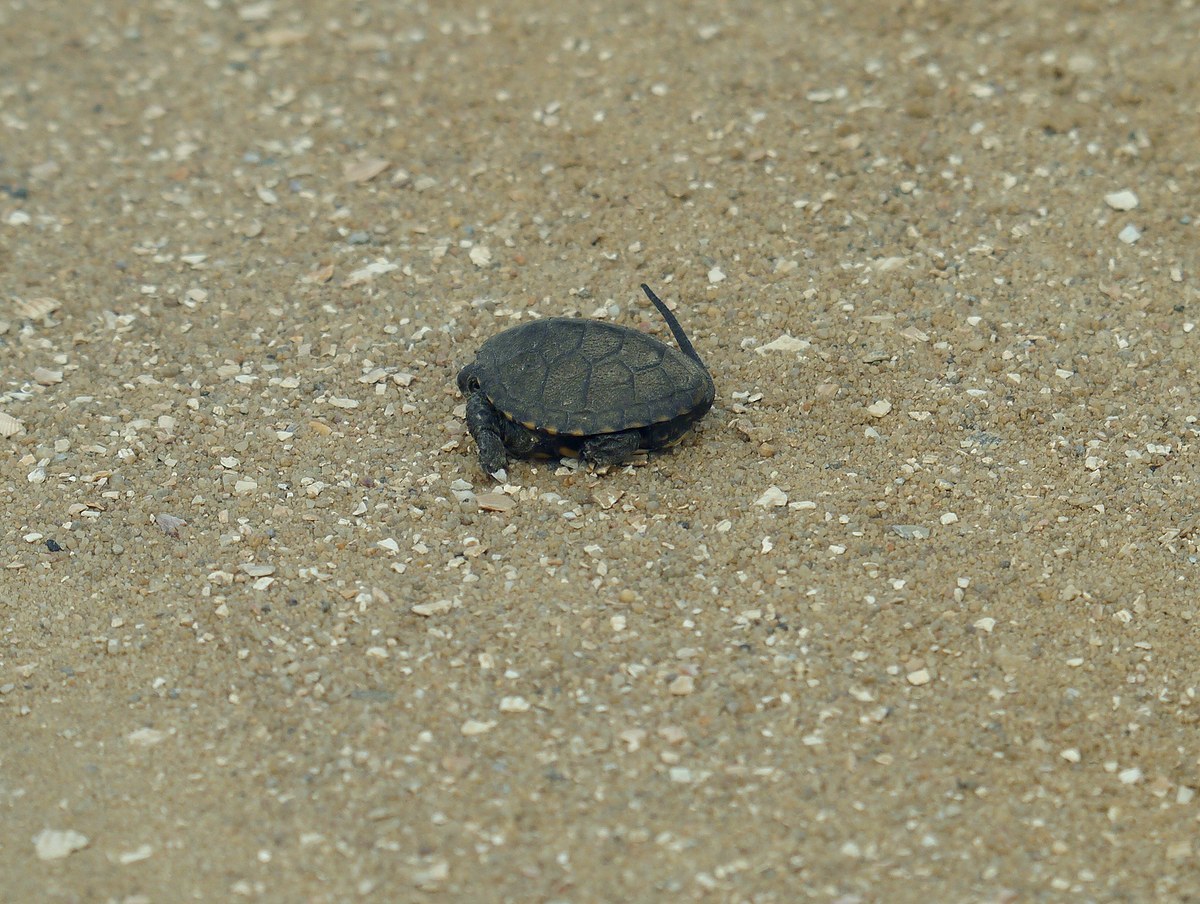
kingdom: Animalia
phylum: Chordata
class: Testudines
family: Emydidae
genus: Emys
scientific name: Emys orbicularis
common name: European pond turtle
